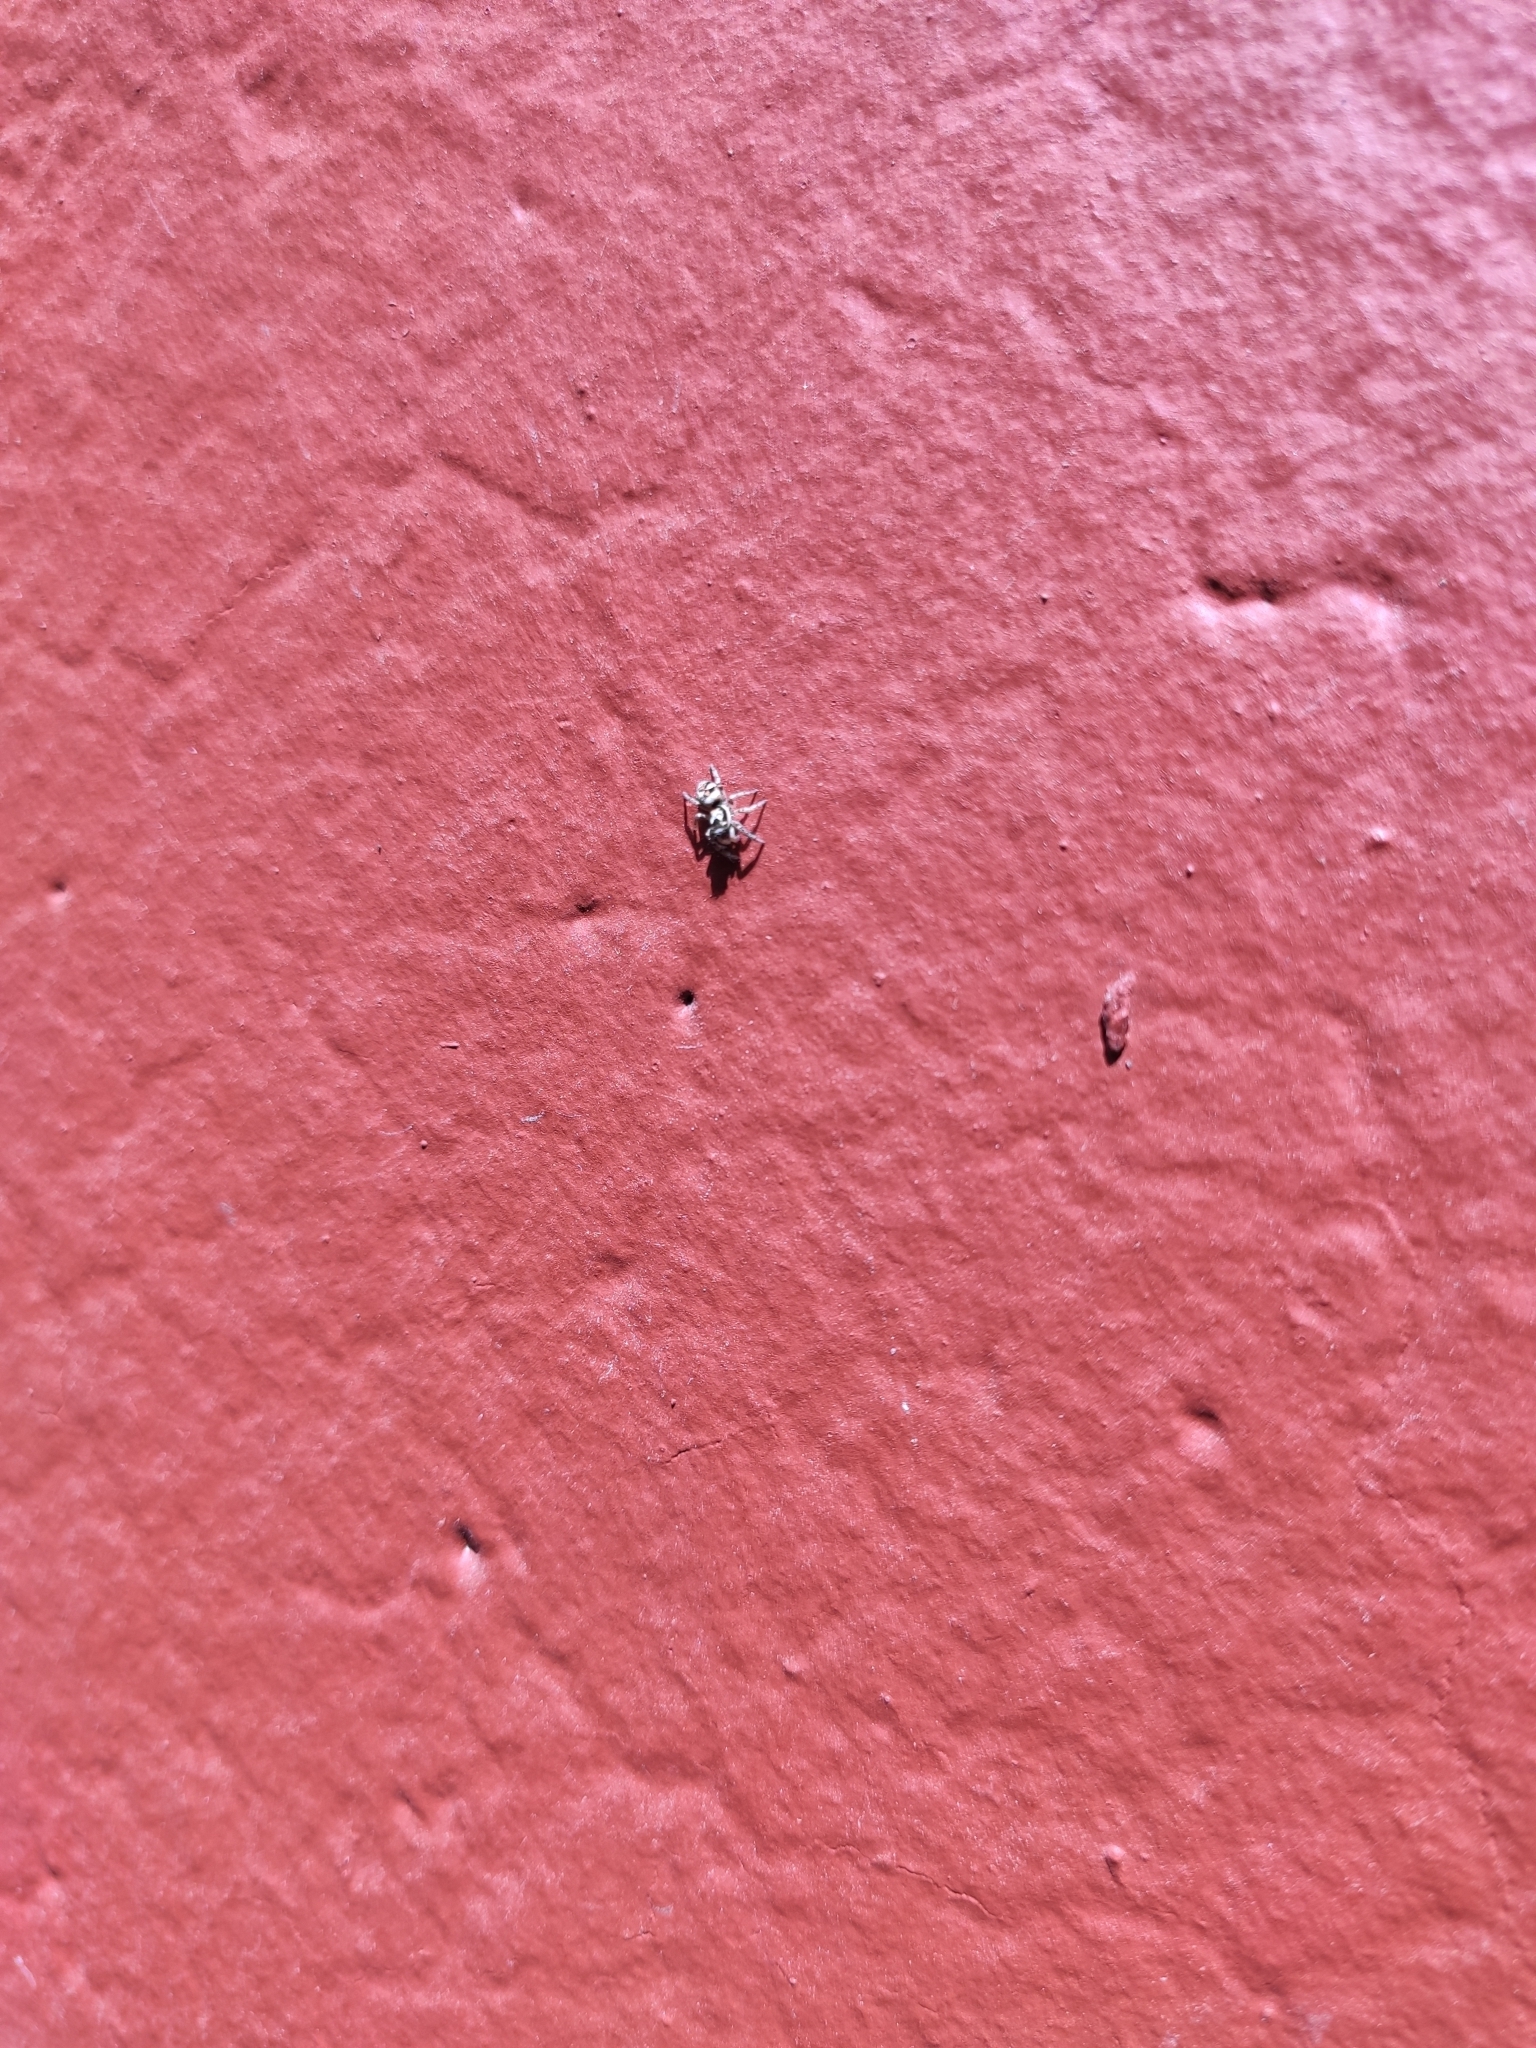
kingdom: Animalia
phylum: Arthropoda
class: Arachnida
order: Araneae
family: Salticidae
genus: Salticus
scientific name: Salticus scenicus
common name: Zebra jumper
